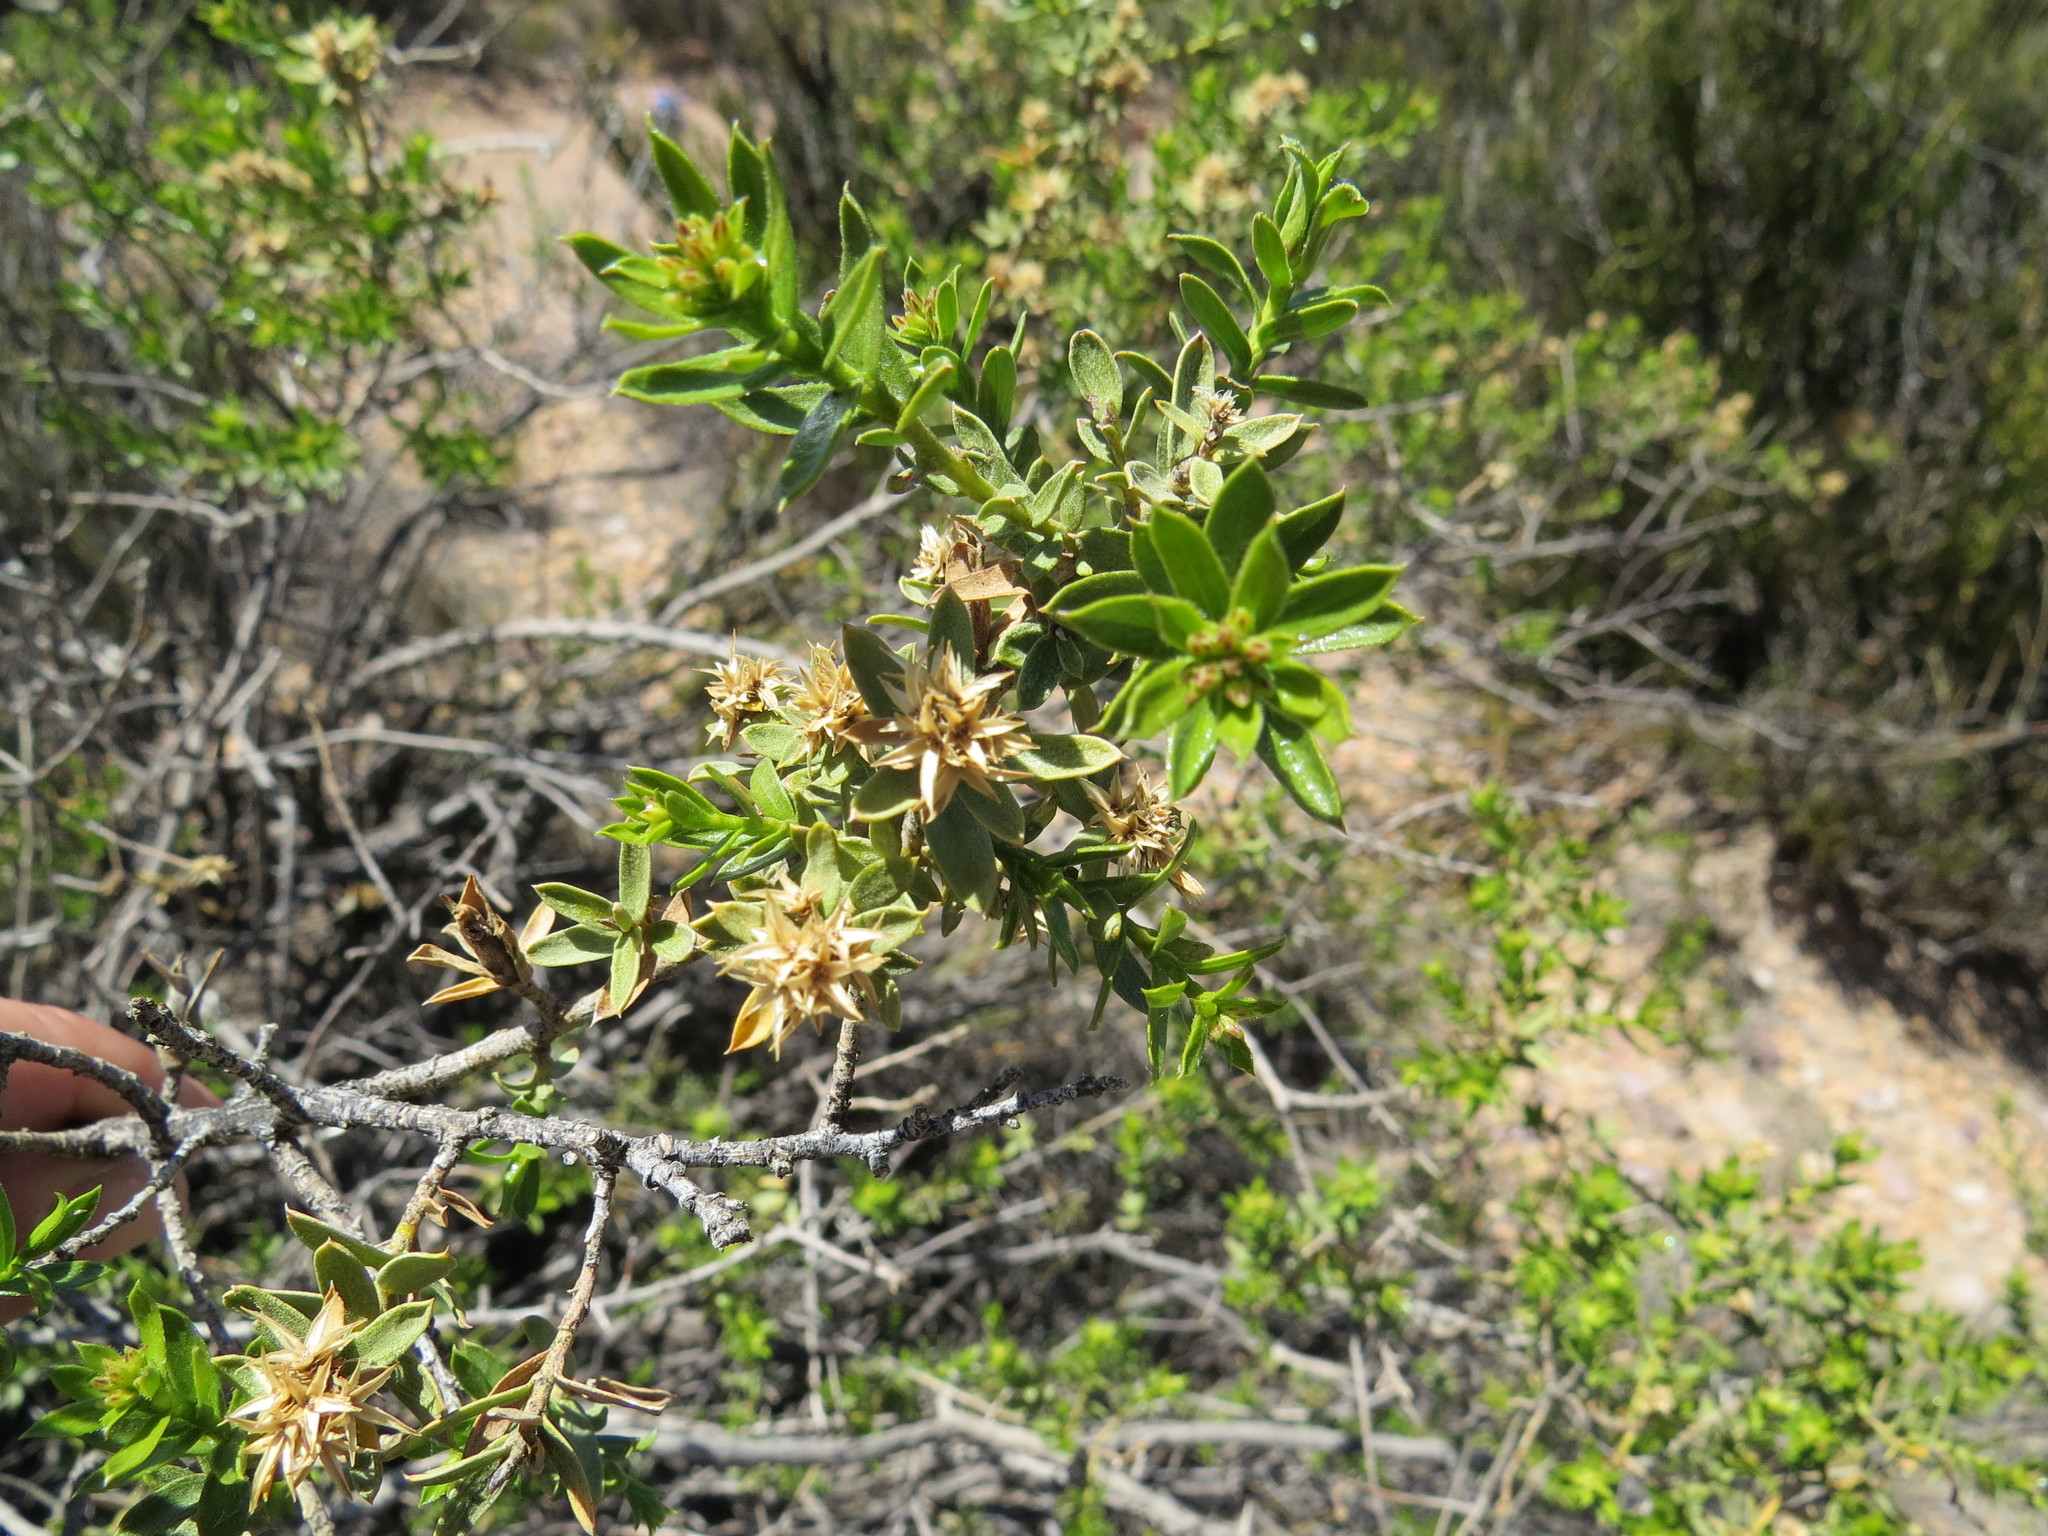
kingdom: Plantae
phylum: Tracheophyta
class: Magnoliopsida
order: Asterales
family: Asteraceae
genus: Gochnatia
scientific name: Gochnatia glutinosa
